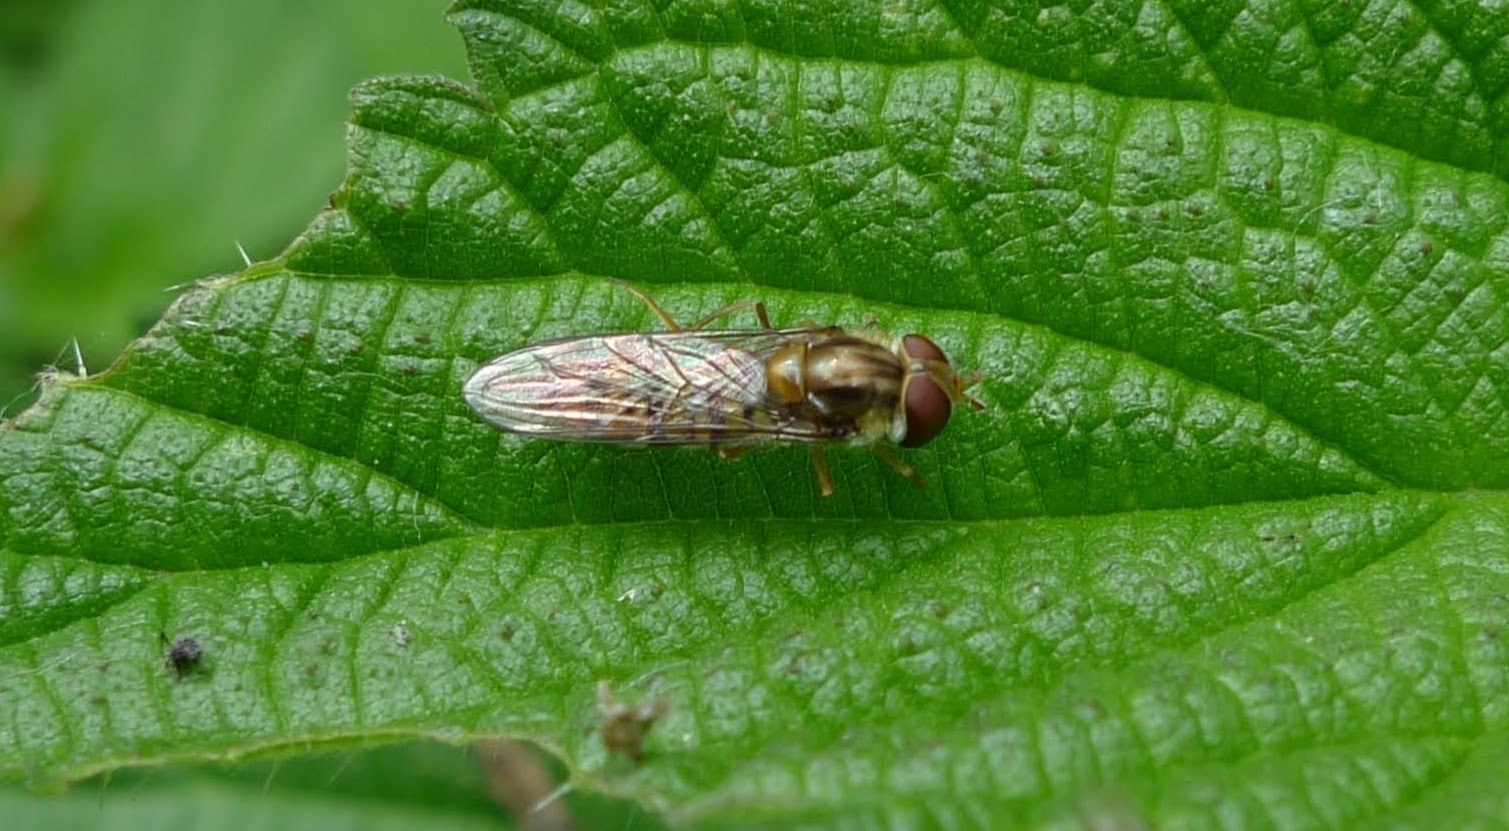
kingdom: Animalia
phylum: Arthropoda
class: Insecta
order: Diptera
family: Syrphidae
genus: Episyrphus
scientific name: Episyrphus balteatus
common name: Marmalade hoverfly
